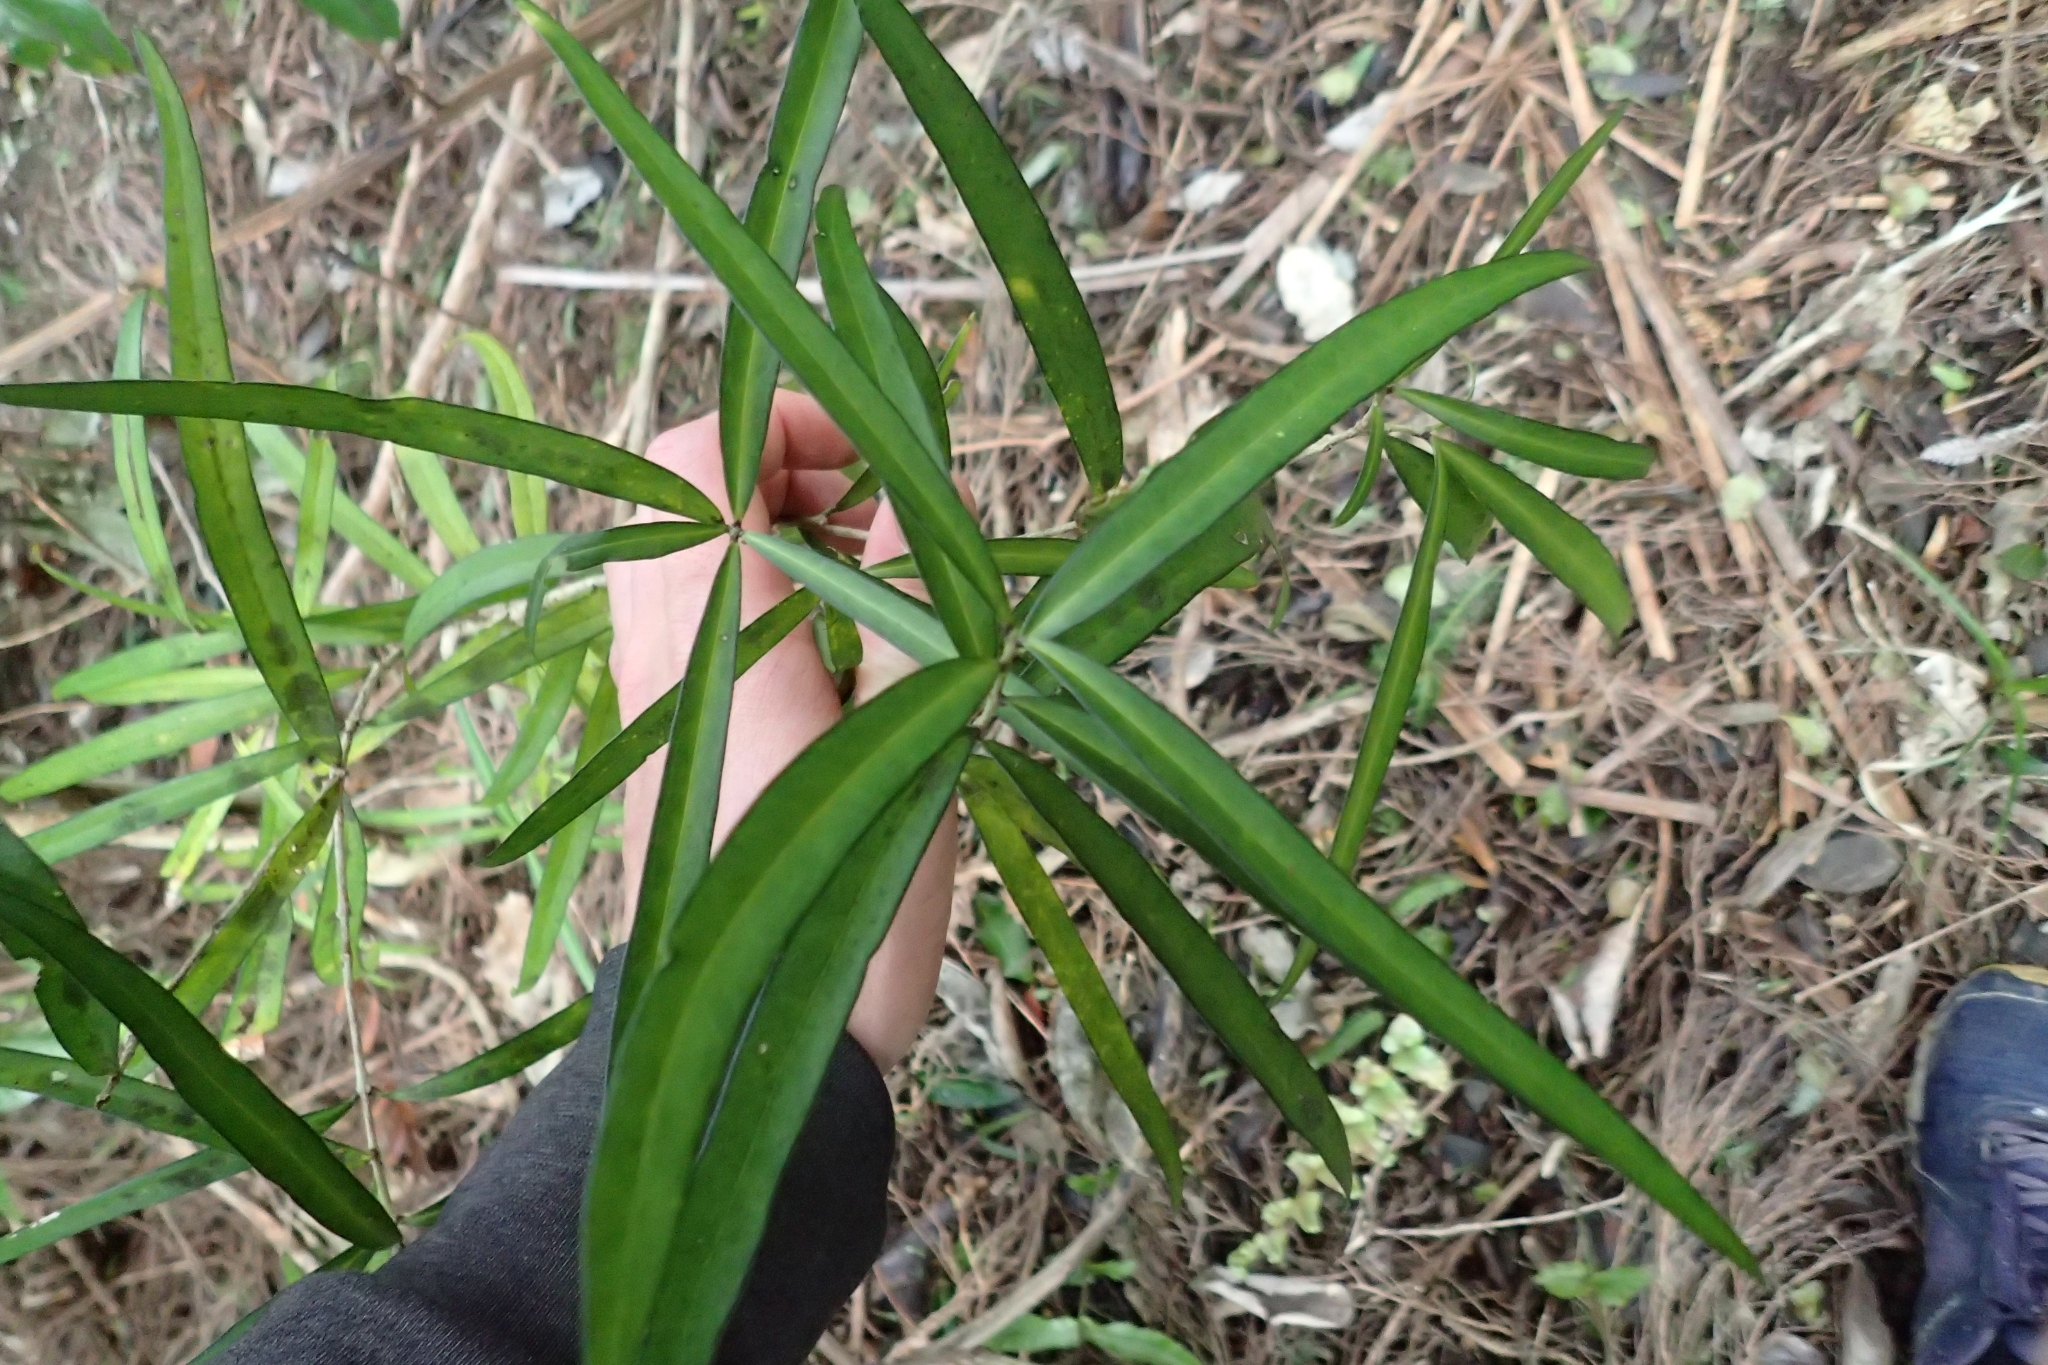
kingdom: Plantae
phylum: Tracheophyta
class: Magnoliopsida
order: Lamiales
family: Oleaceae
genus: Nestegis
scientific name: Nestegis lanceolata
